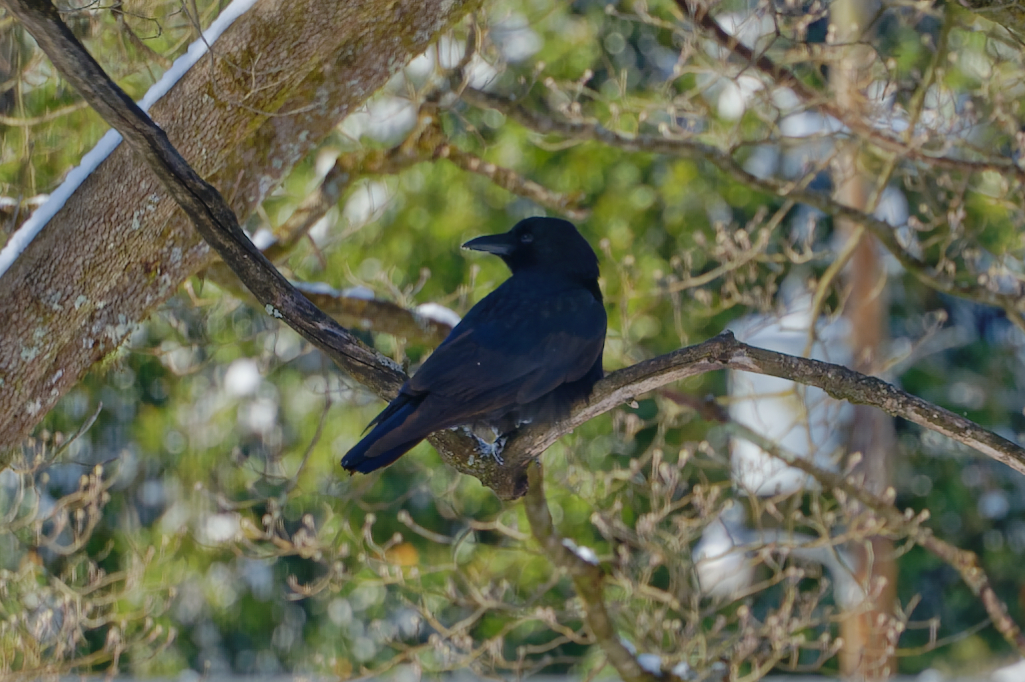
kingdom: Animalia
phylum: Chordata
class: Aves
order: Passeriformes
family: Corvidae
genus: Corvus
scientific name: Corvus brachyrhynchos
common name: American crow
